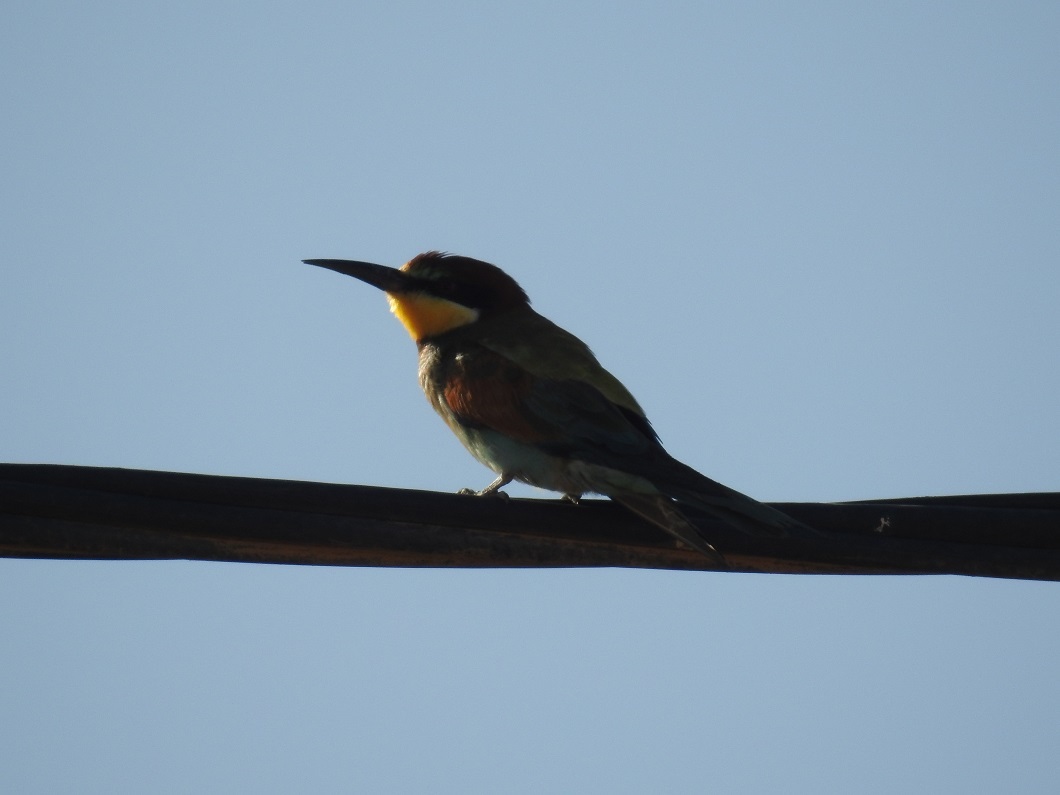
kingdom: Animalia
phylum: Chordata
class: Aves
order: Coraciiformes
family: Meropidae
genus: Merops
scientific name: Merops apiaster
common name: European bee-eater
